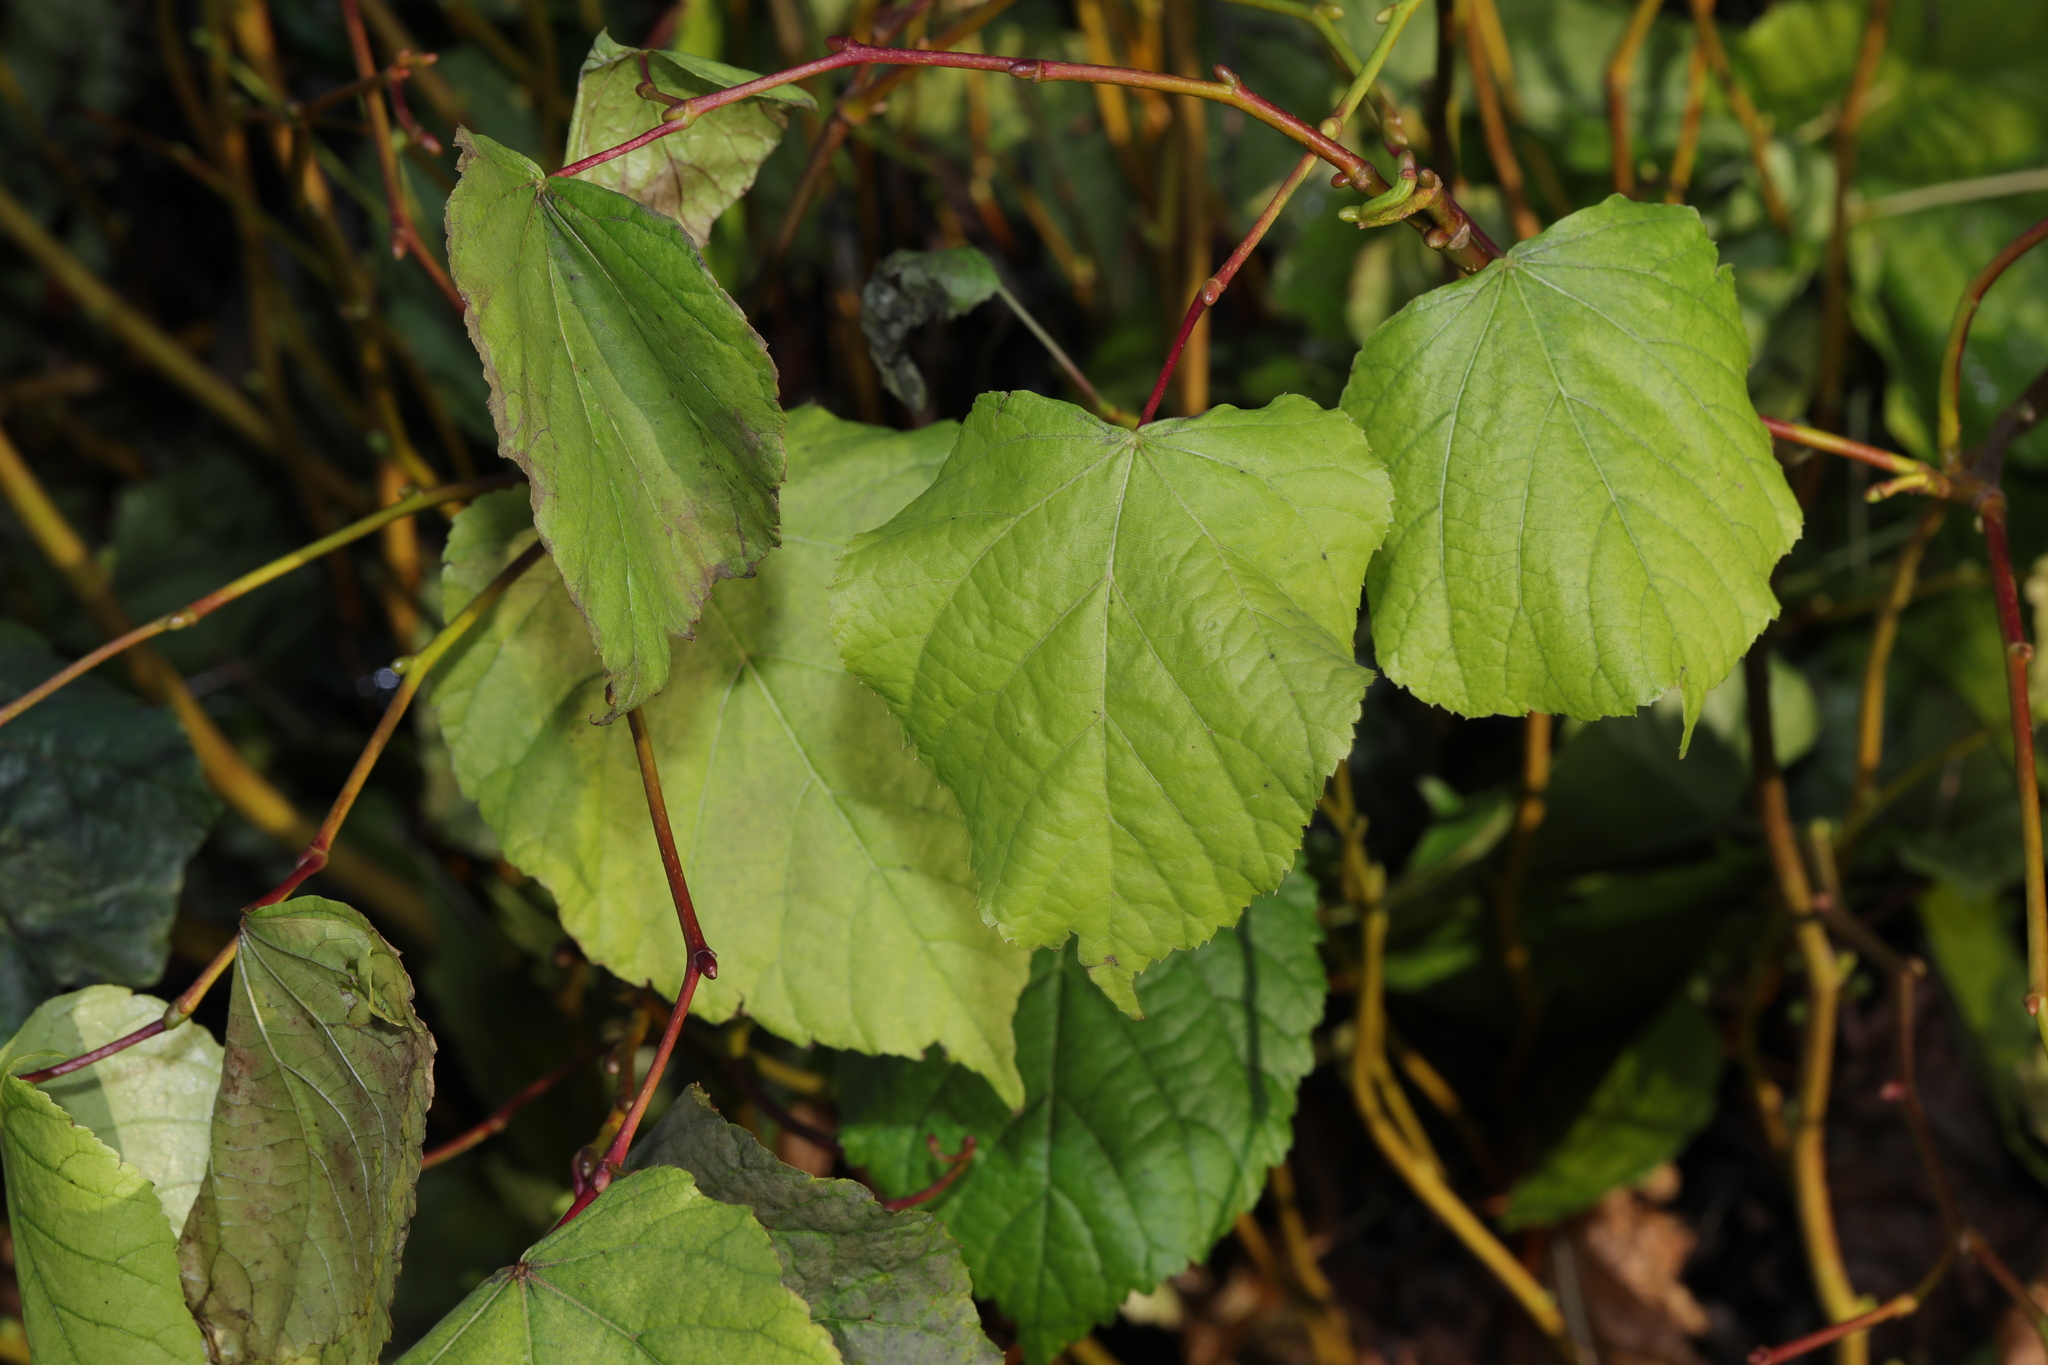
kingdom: Plantae
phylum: Tracheophyta
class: Magnoliopsida
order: Malvales
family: Malvaceae
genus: Tilia
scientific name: Tilia europaea
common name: European linden
